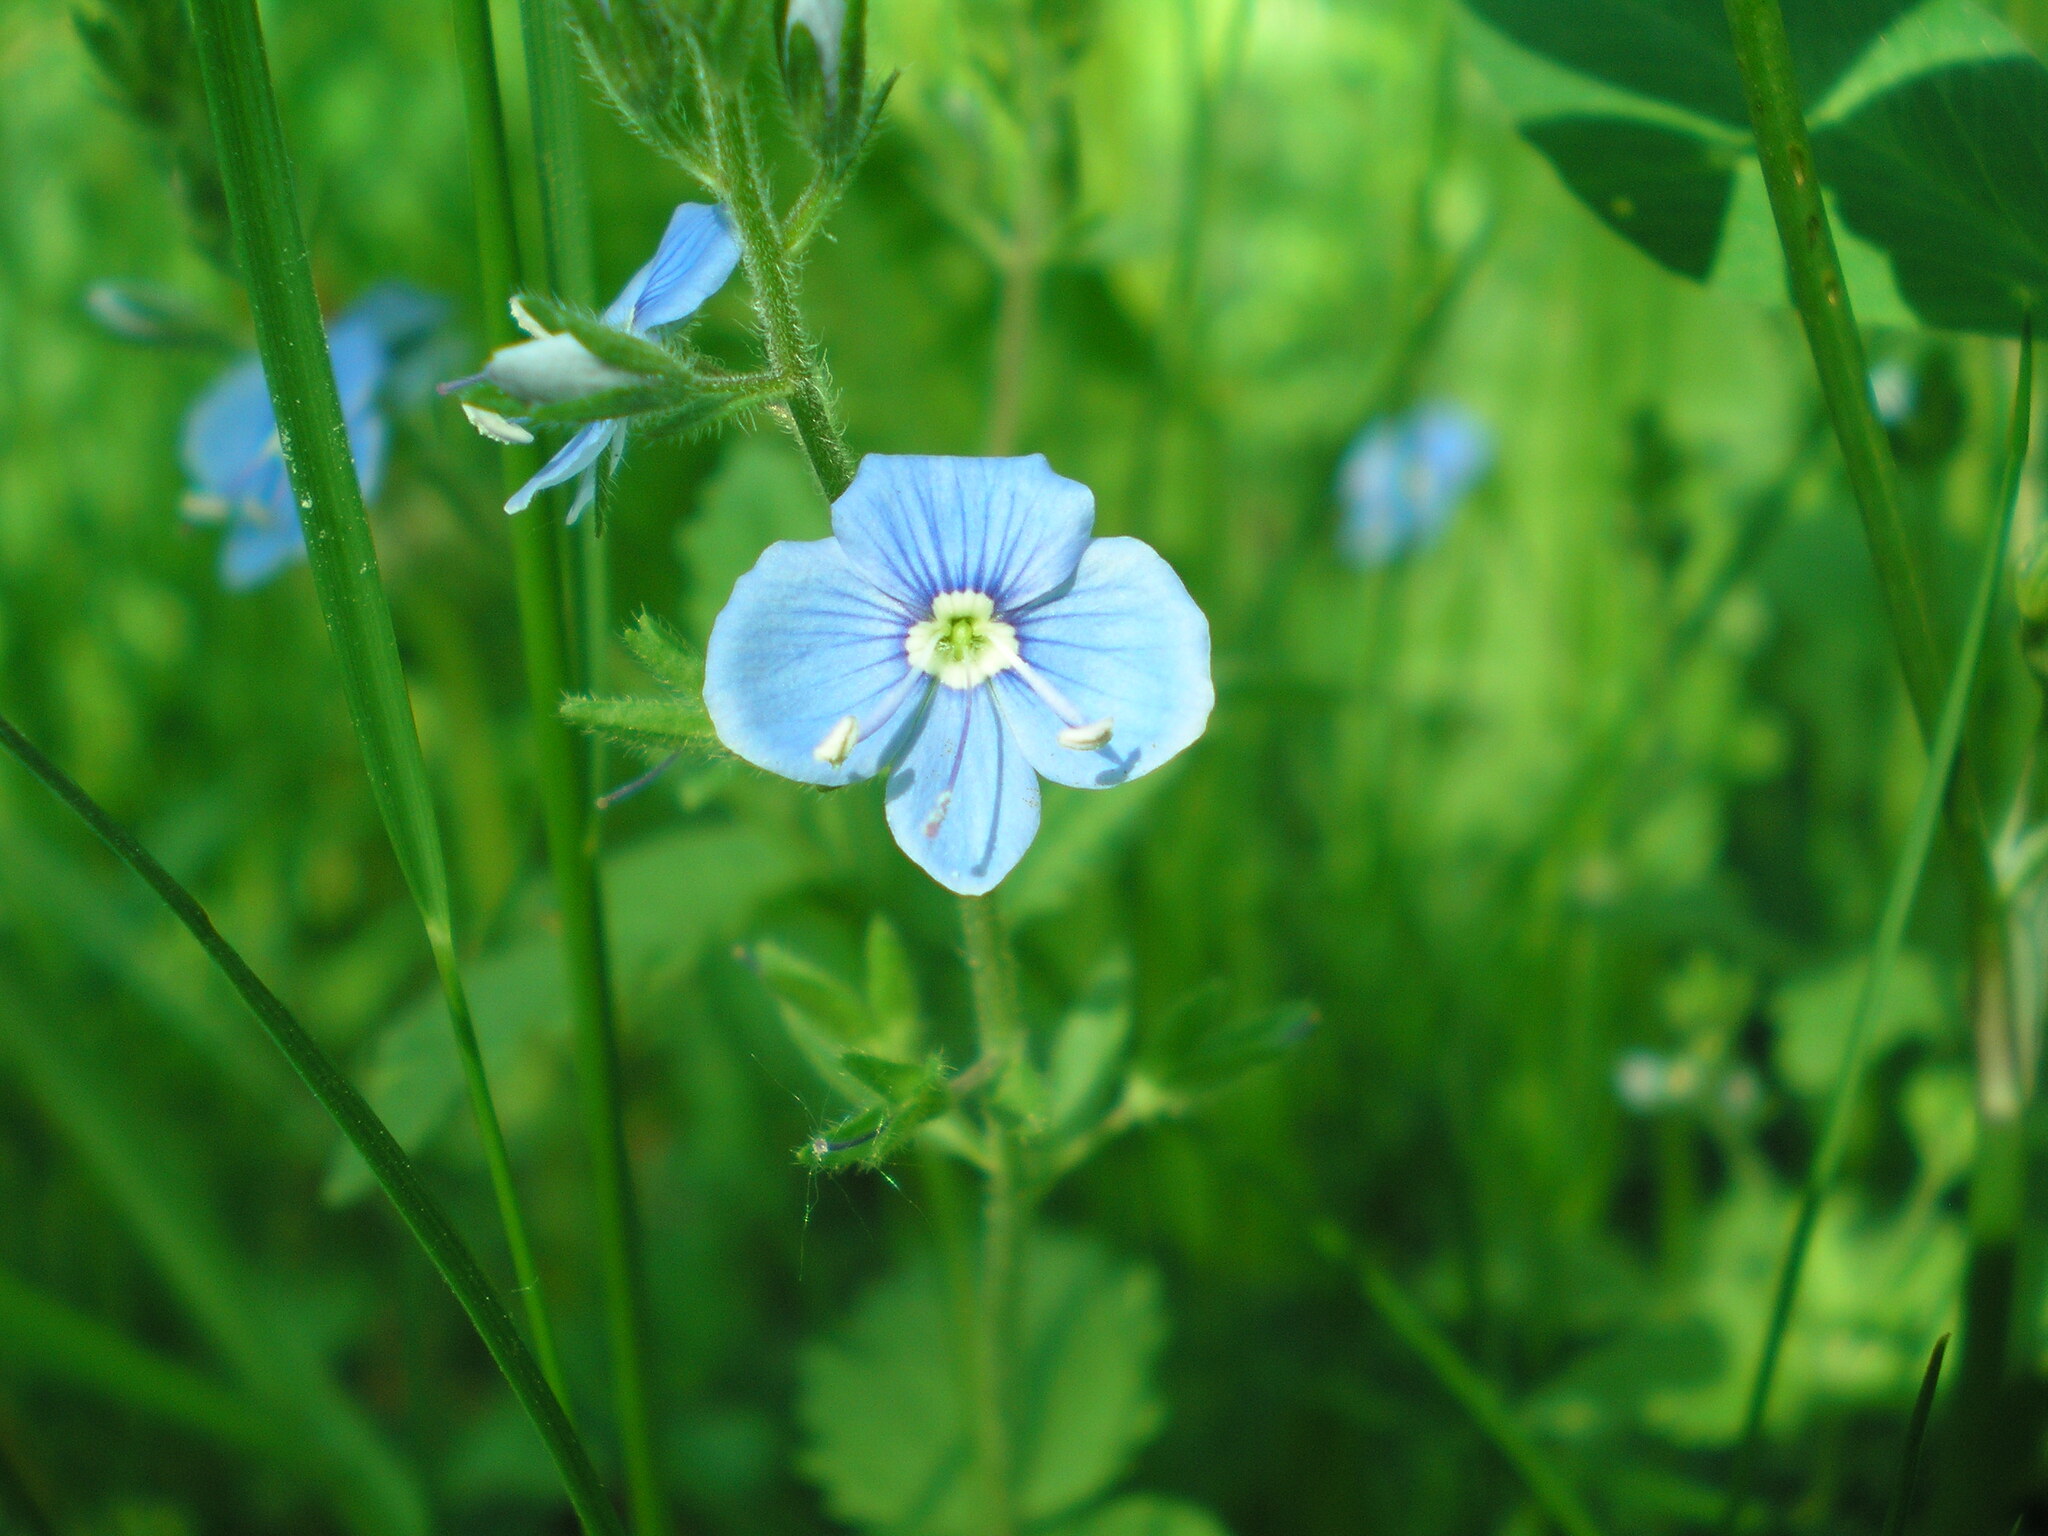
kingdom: Plantae
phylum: Tracheophyta
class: Magnoliopsida
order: Lamiales
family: Plantaginaceae
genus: Veronica
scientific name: Veronica chamaedrys
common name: Germander speedwell
